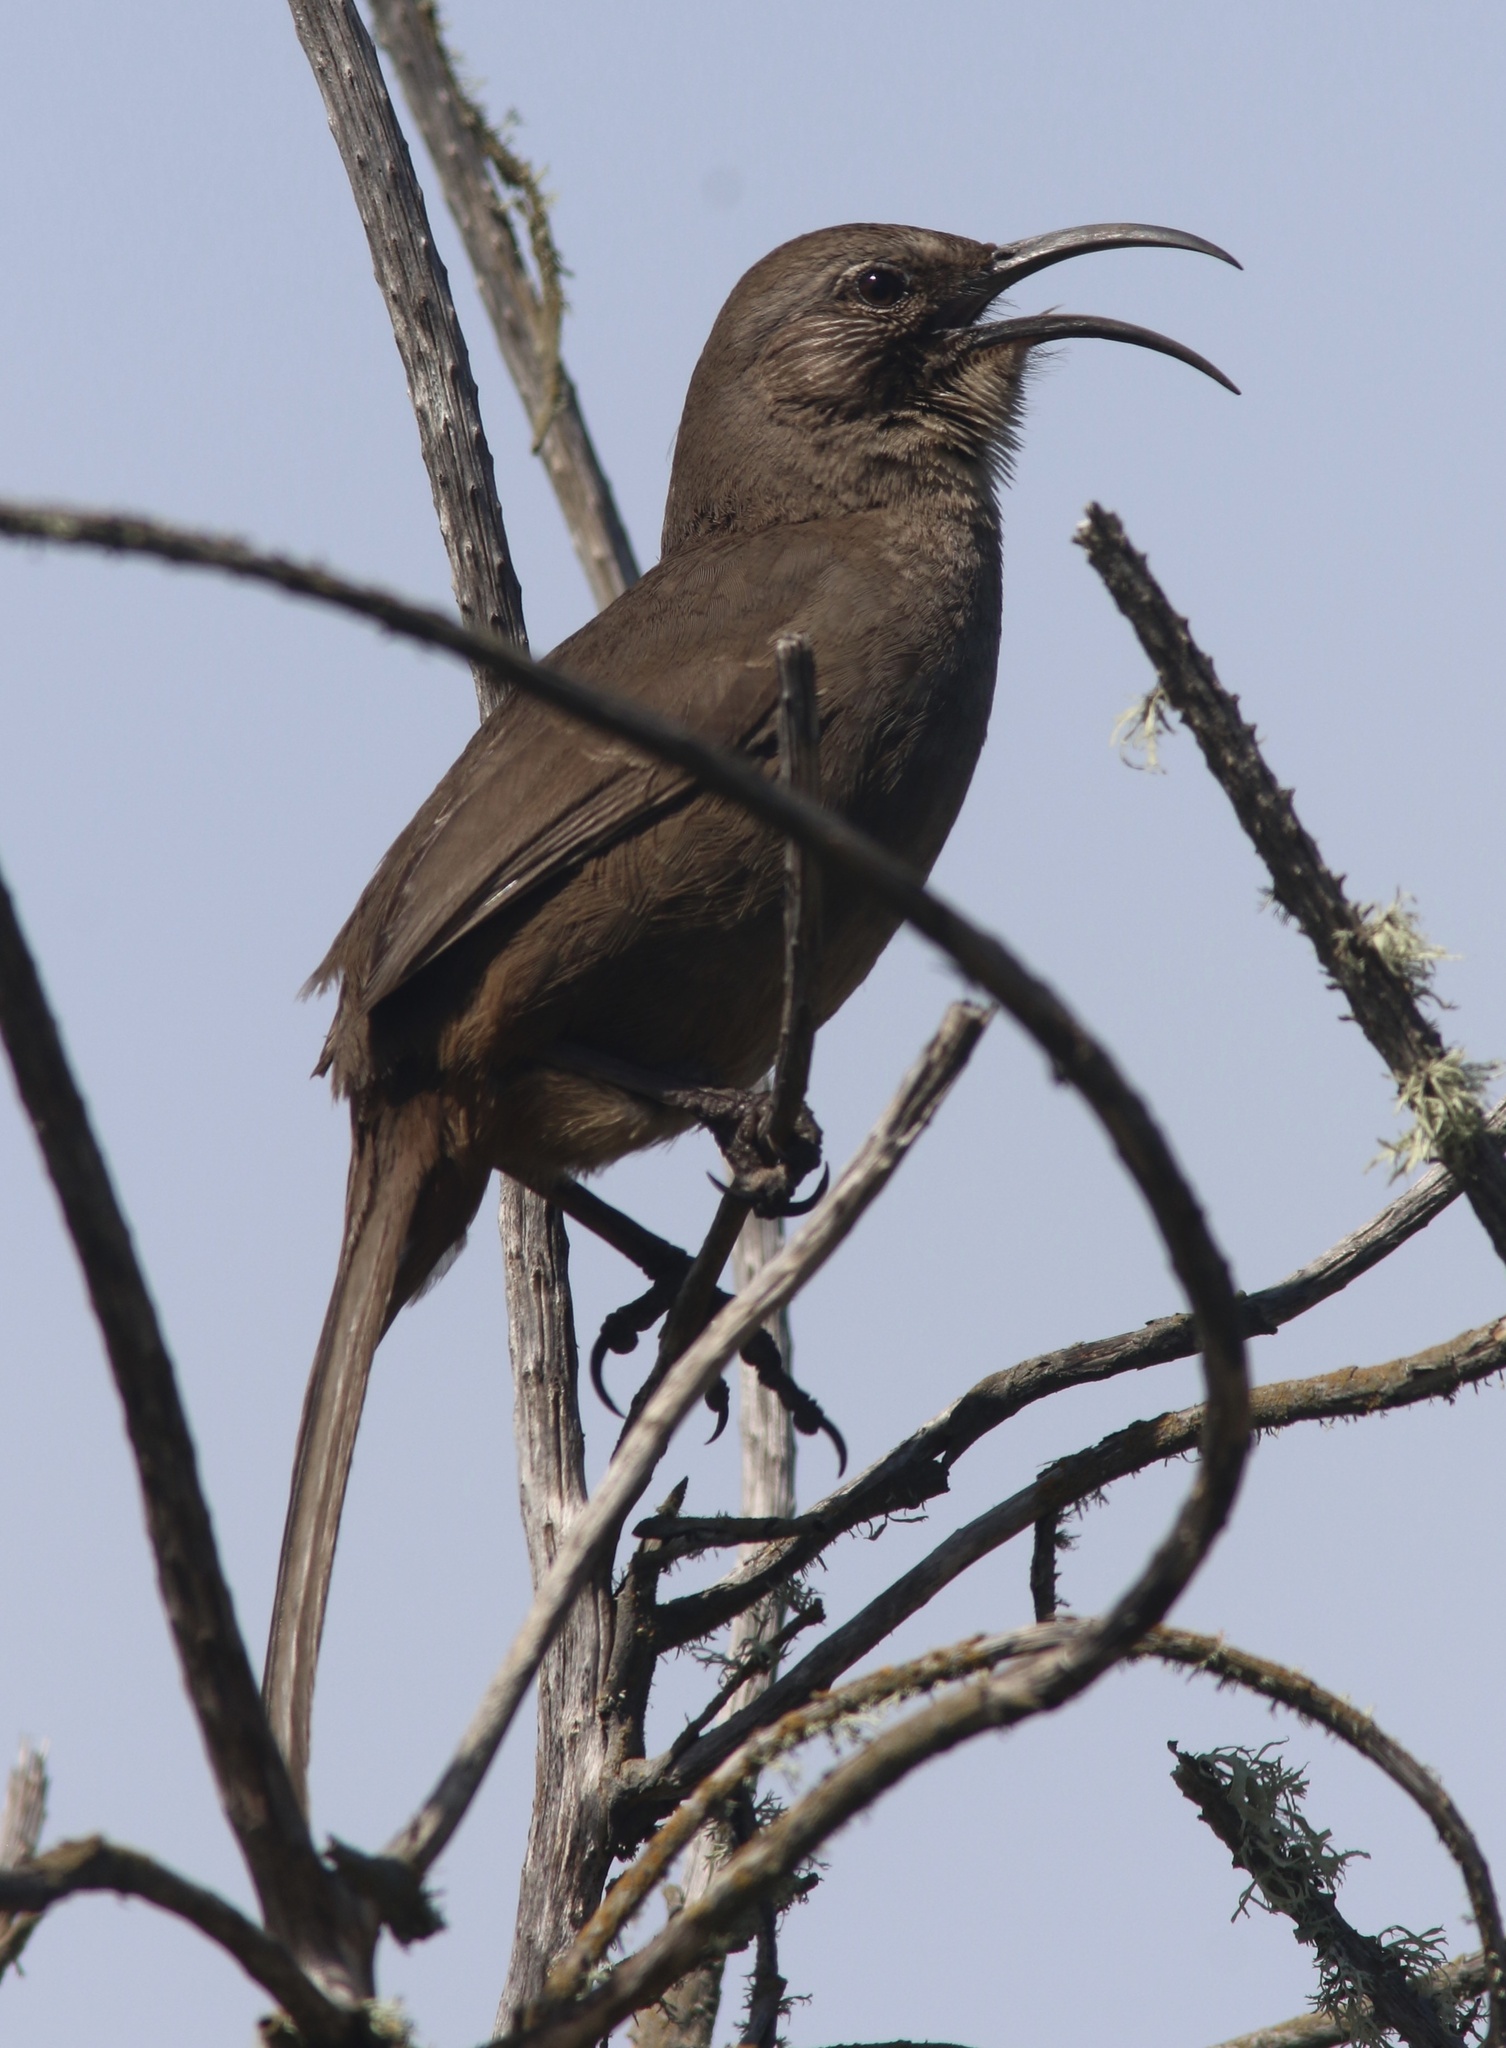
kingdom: Animalia
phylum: Chordata
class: Aves
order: Passeriformes
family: Mimidae
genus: Toxostoma
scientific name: Toxostoma redivivum
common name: California thrasher
